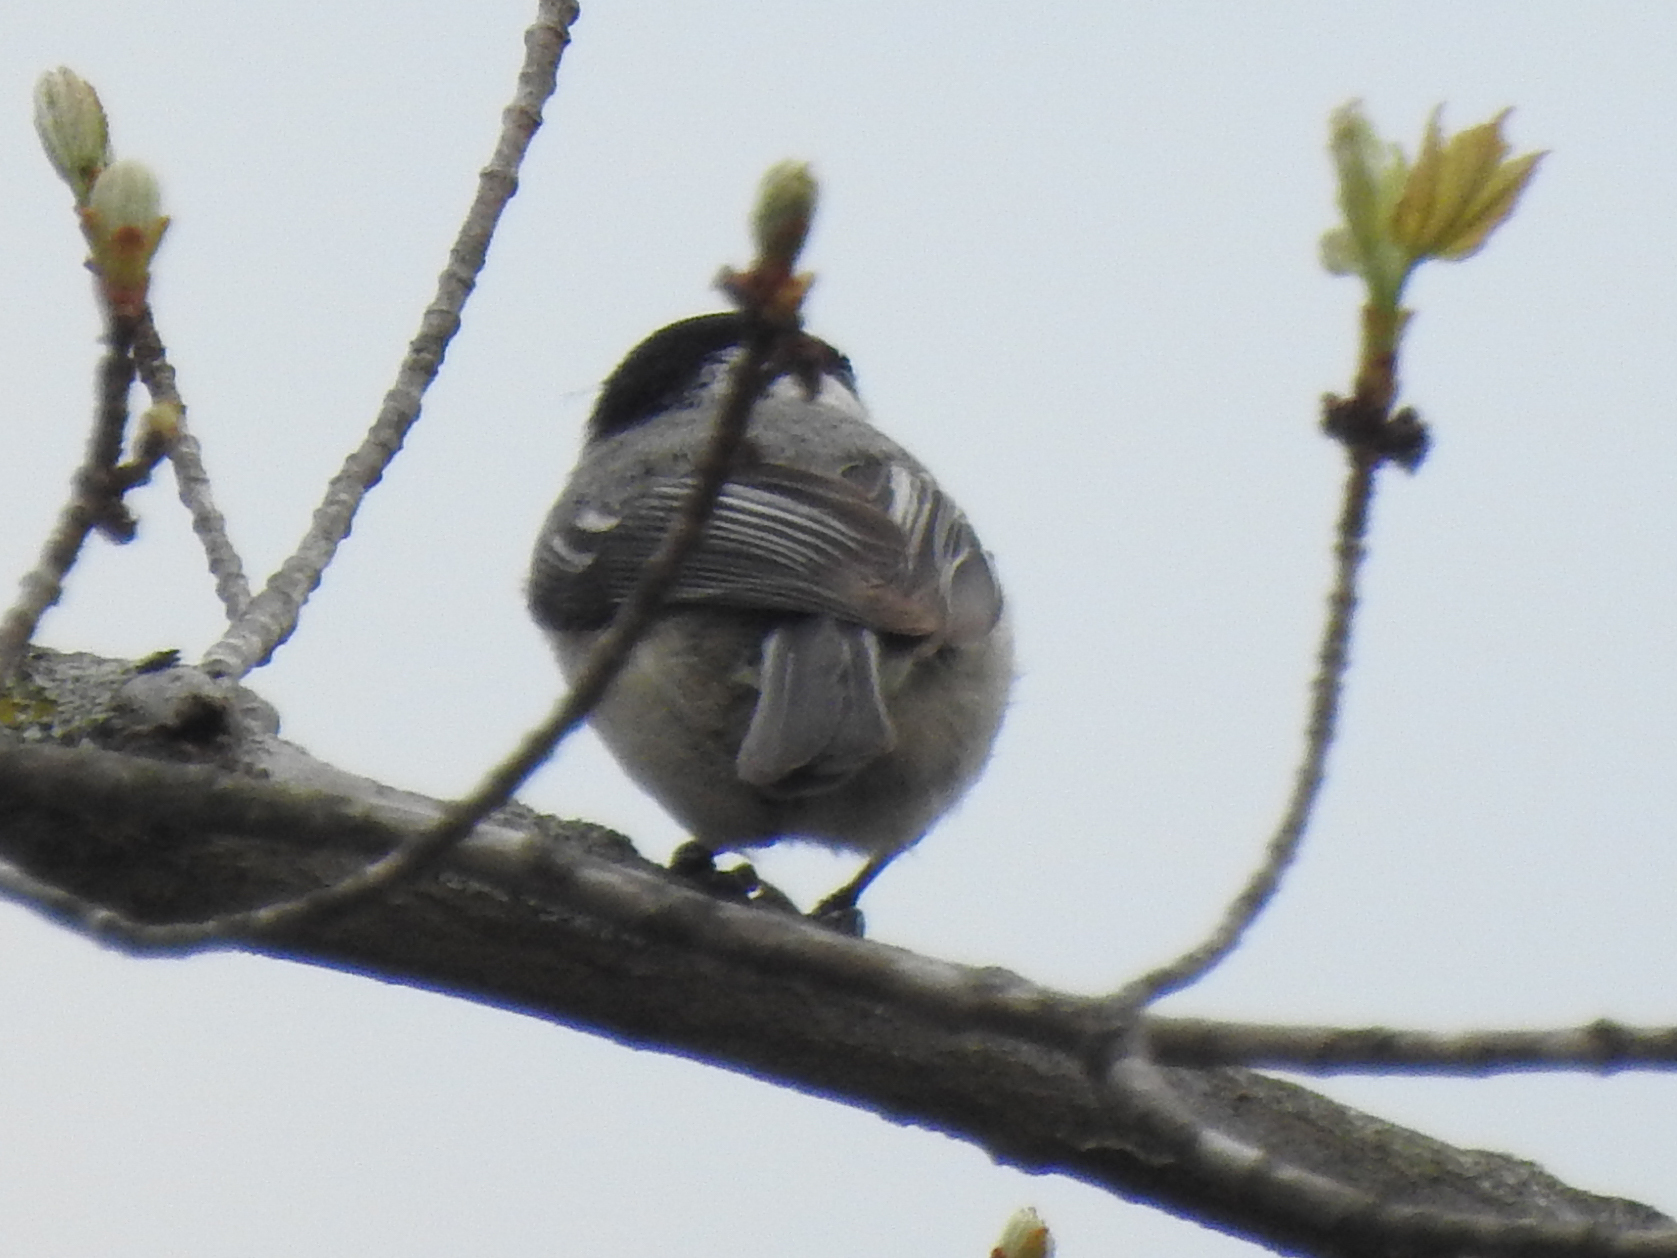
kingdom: Animalia
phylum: Chordata
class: Aves
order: Passeriformes
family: Paridae
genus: Poecile
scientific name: Poecile atricapillus
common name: Black-capped chickadee
